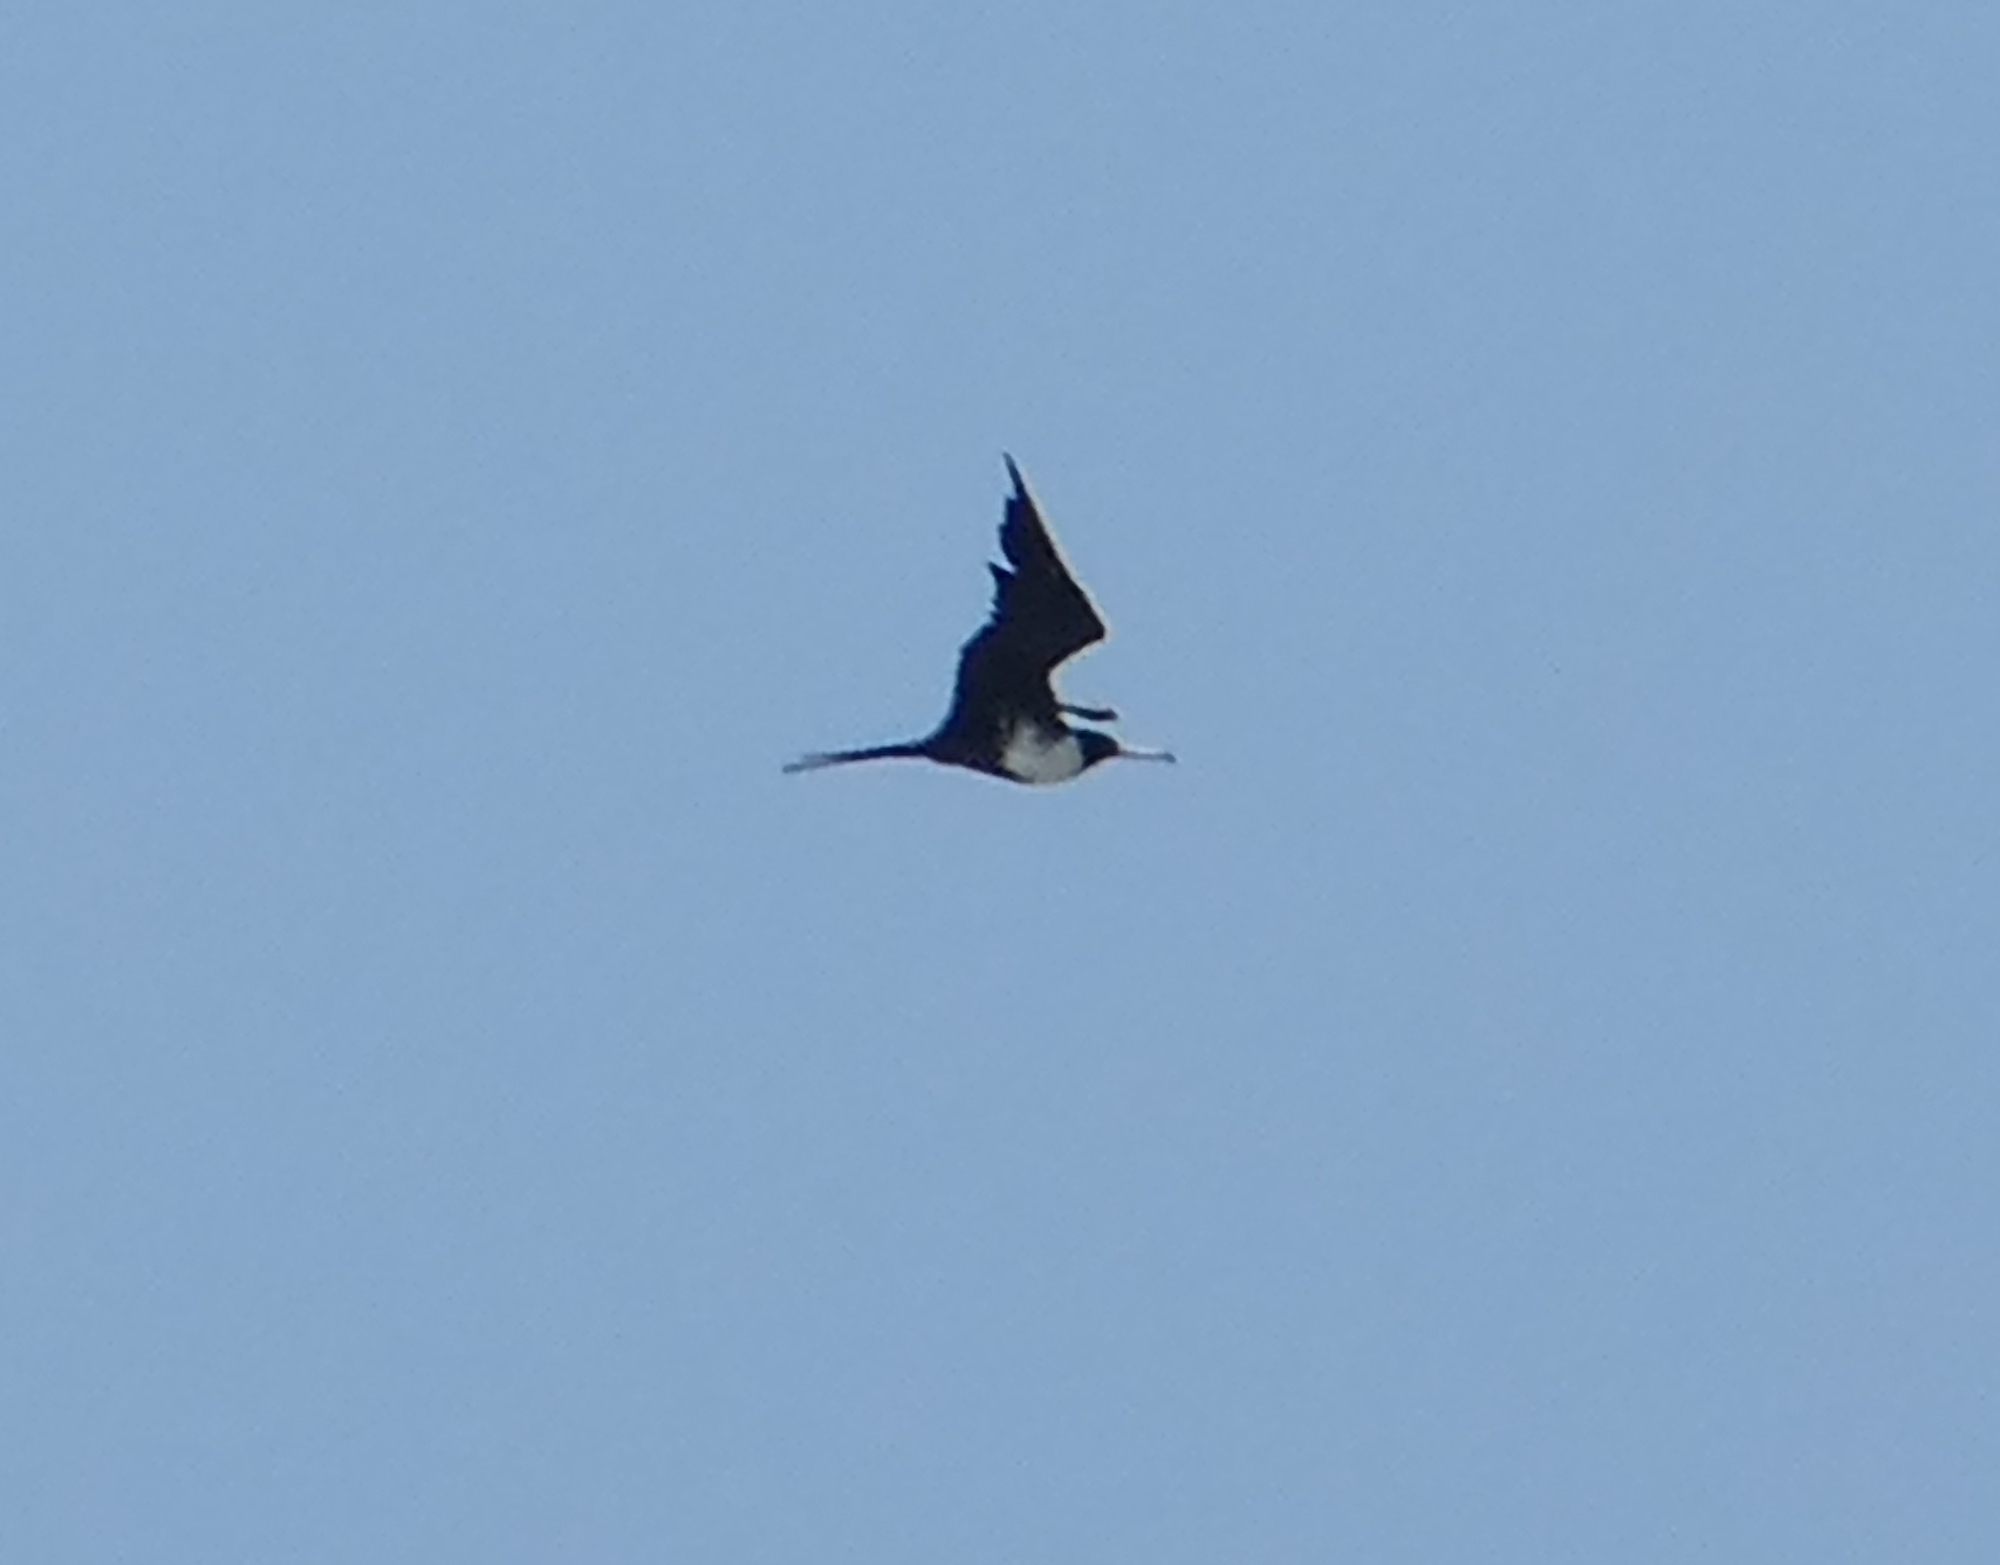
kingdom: Animalia
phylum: Chordata
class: Aves
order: Suliformes
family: Fregatidae
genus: Fregata
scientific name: Fregata magnificens
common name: Magnificent frigatebird
